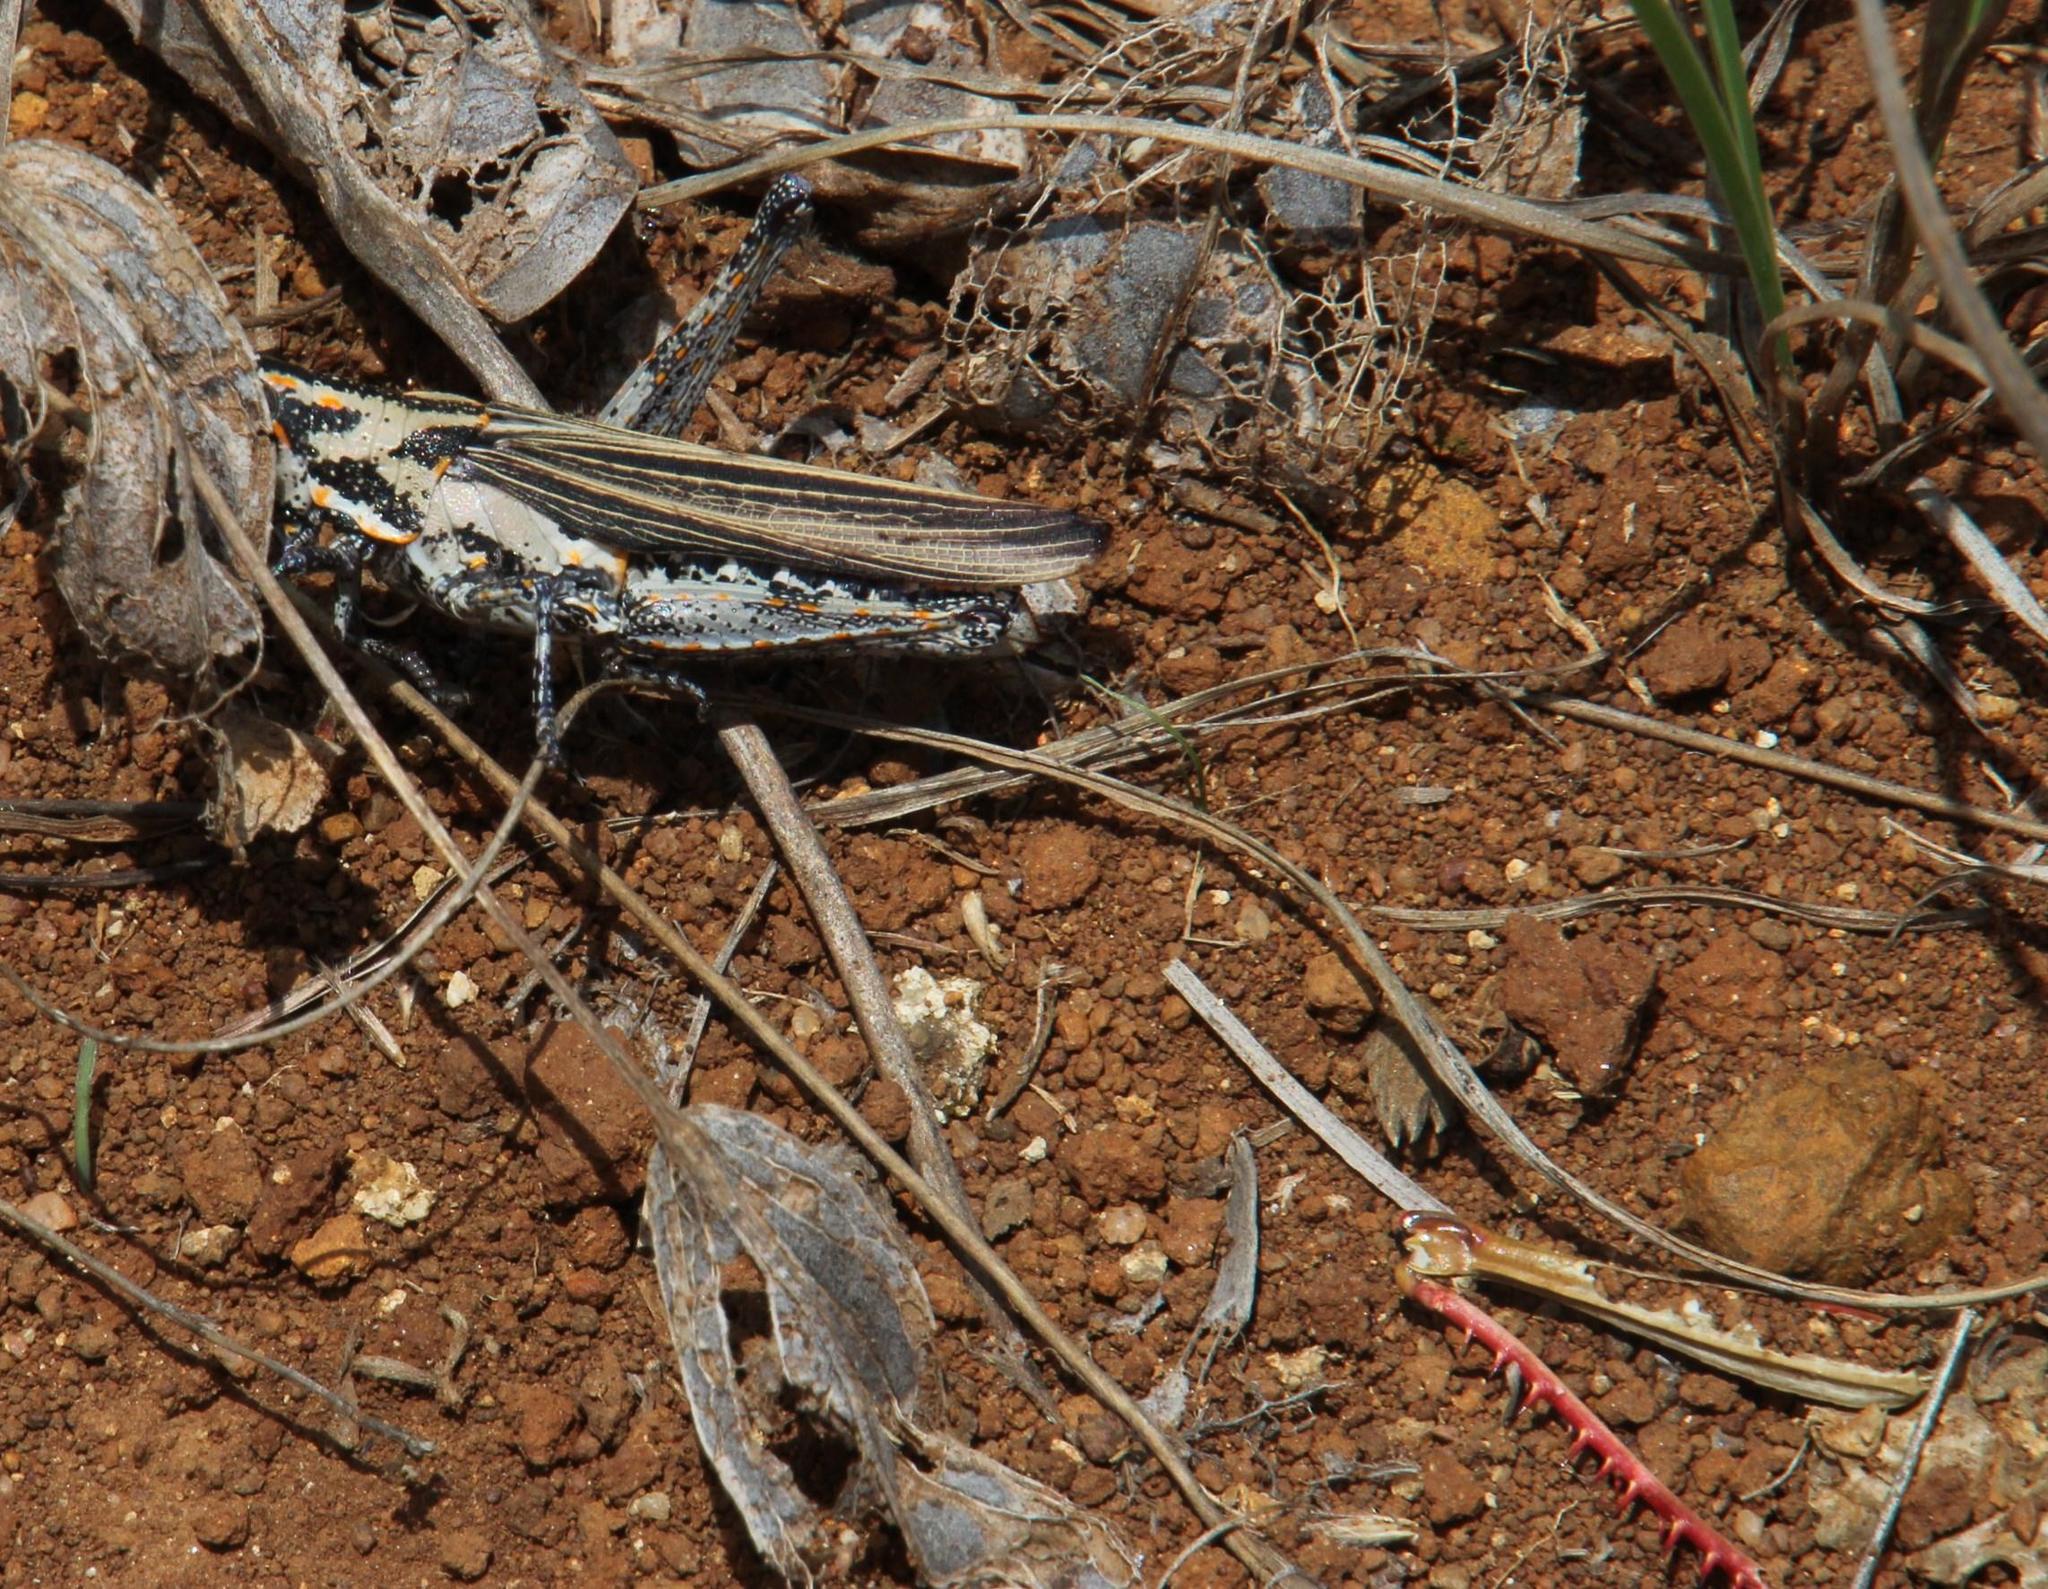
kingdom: Animalia
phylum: Arthropoda
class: Insecta
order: Orthoptera
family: Pyrgomorphidae
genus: Ochrophlebia
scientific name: Ochrophlebia cafra
